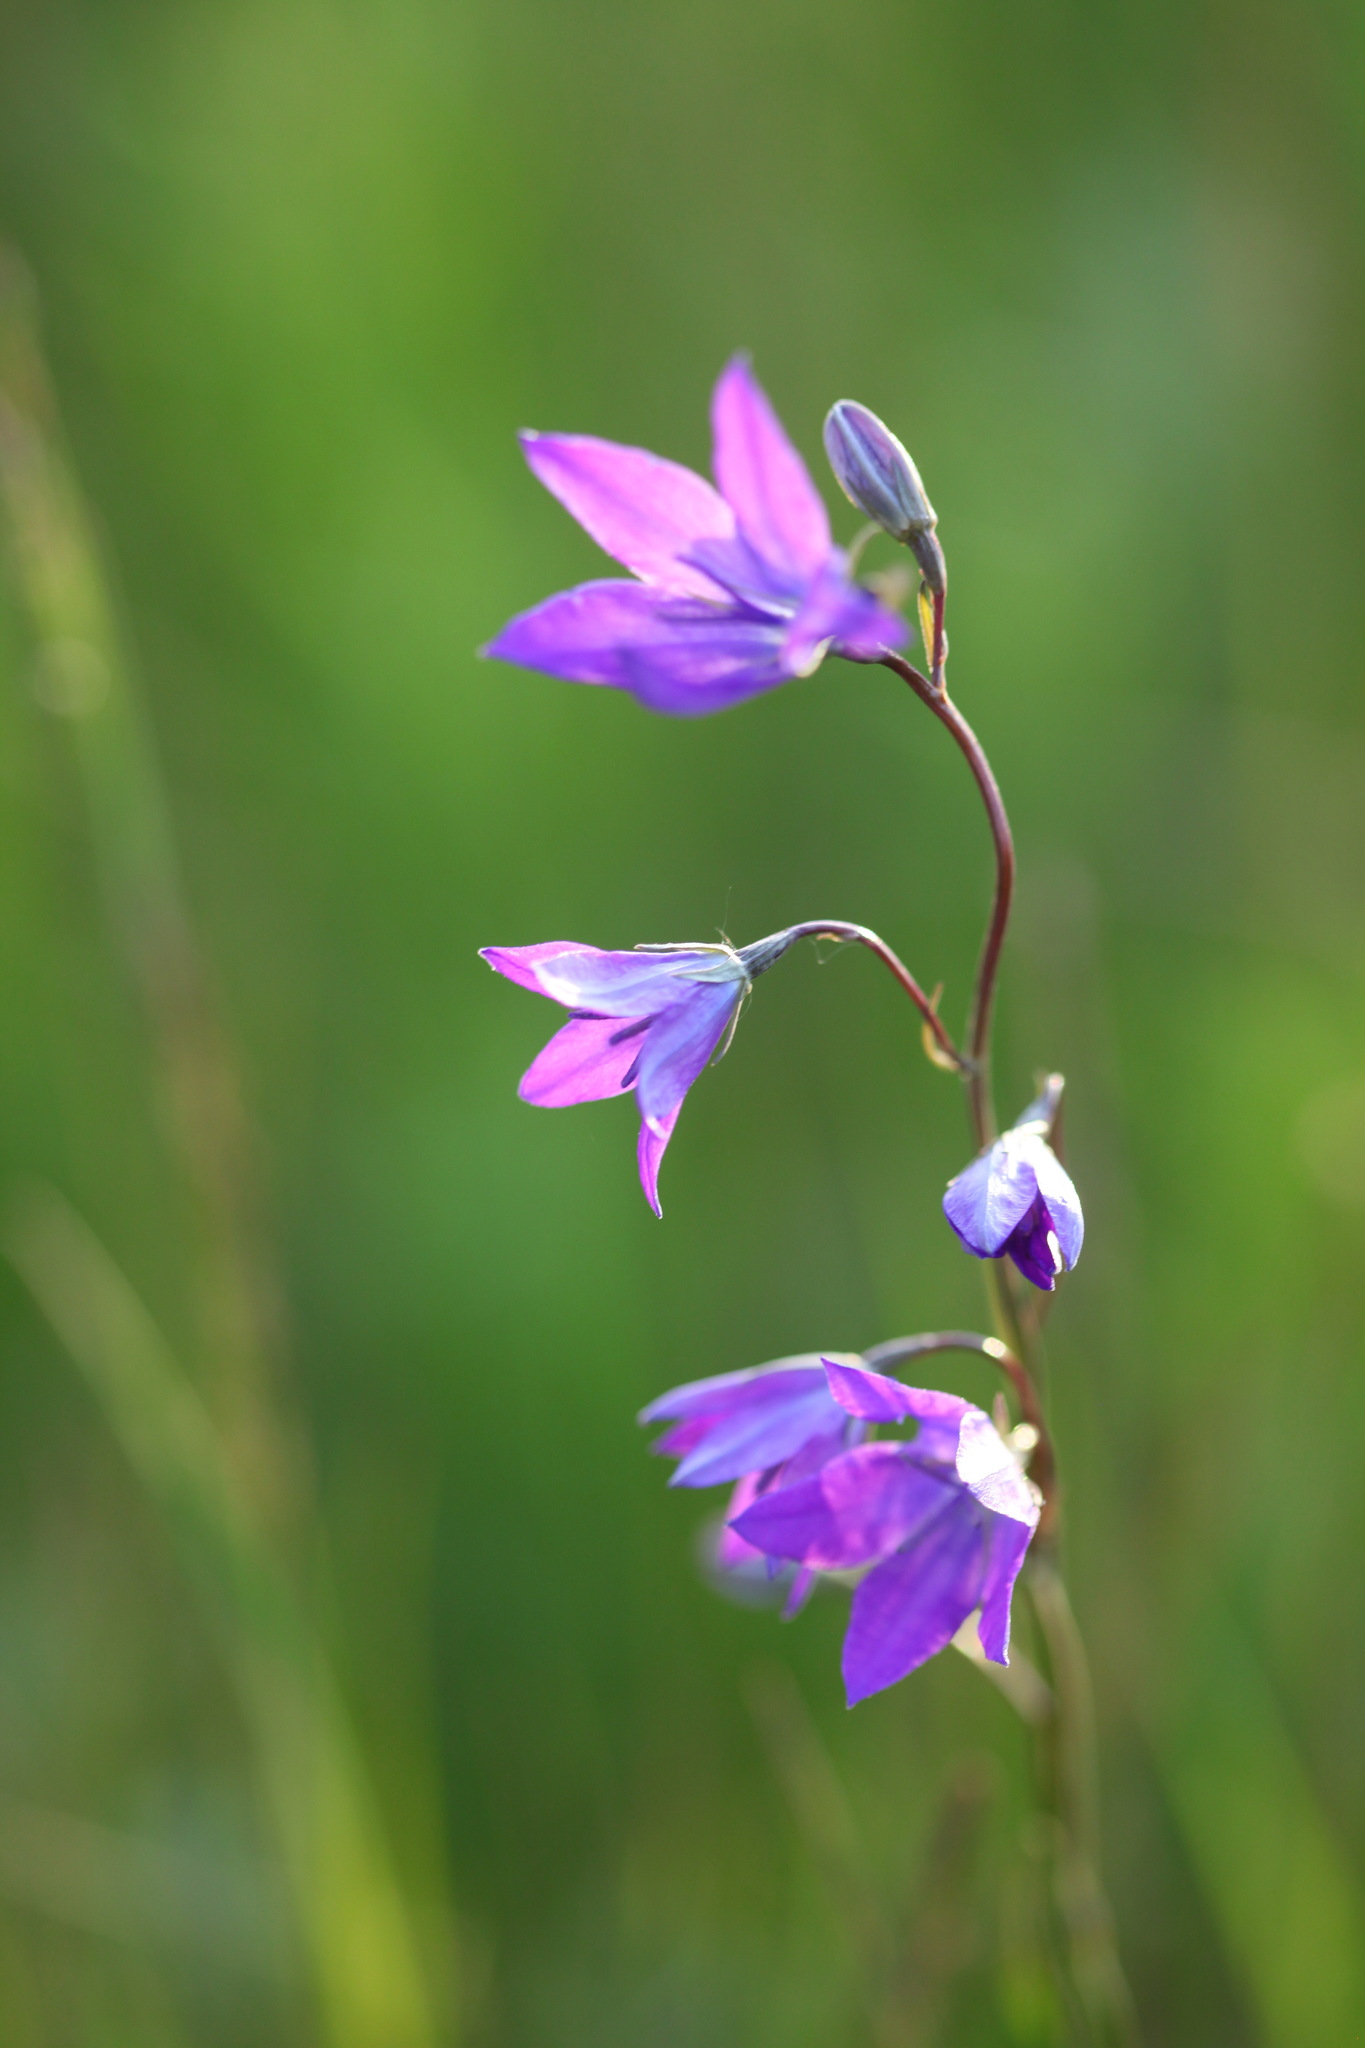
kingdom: Plantae
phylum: Tracheophyta
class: Magnoliopsida
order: Asterales
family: Campanulaceae
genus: Campanula
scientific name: Campanula stevenii
